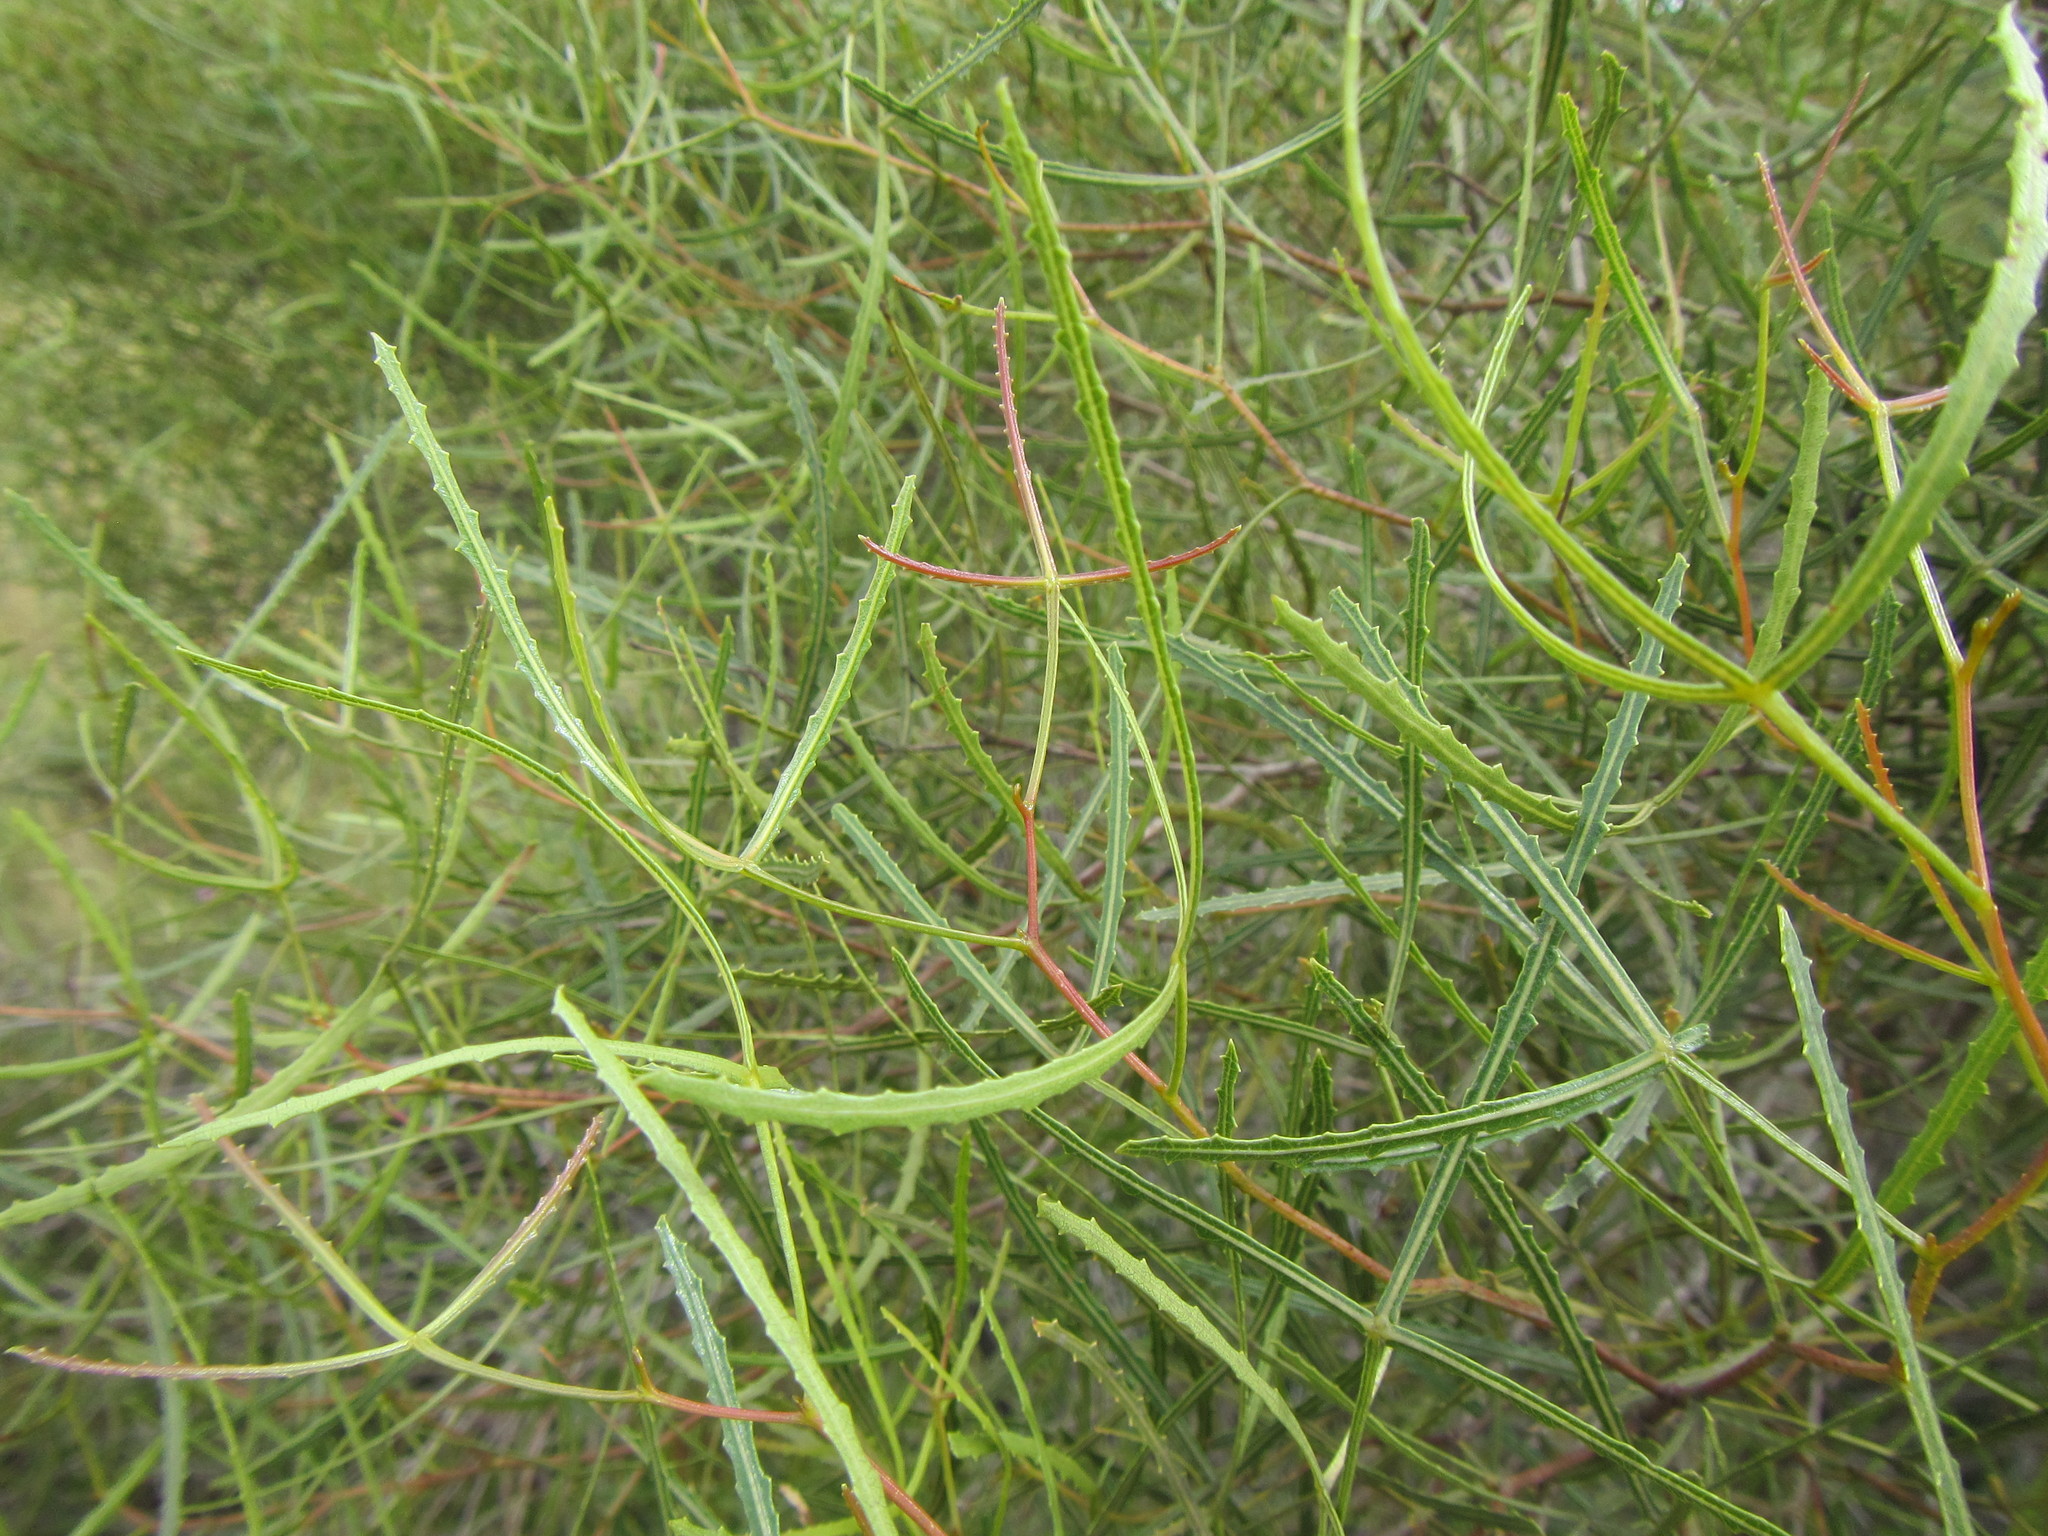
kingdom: Plantae
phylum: Tracheophyta
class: Magnoliopsida
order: Sapindales
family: Anacardiaceae
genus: Searsia
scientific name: Searsia erosa
